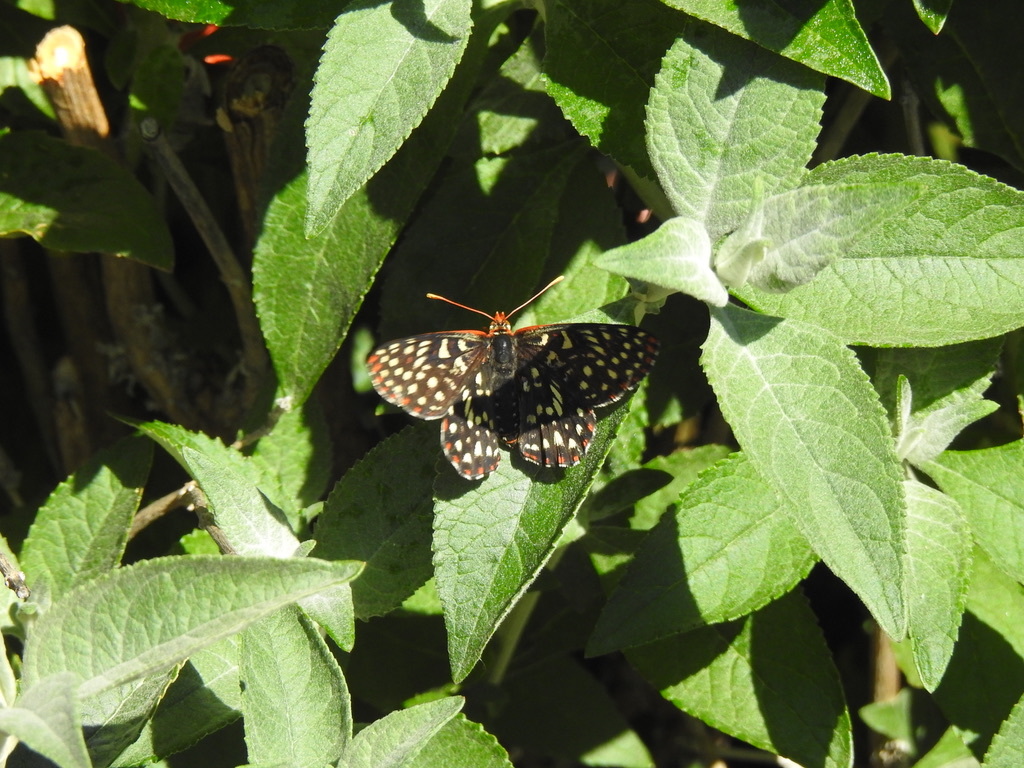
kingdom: Animalia
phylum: Arthropoda
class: Insecta
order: Lepidoptera
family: Nymphalidae
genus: Occidryas
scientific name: Occidryas chalcedona
